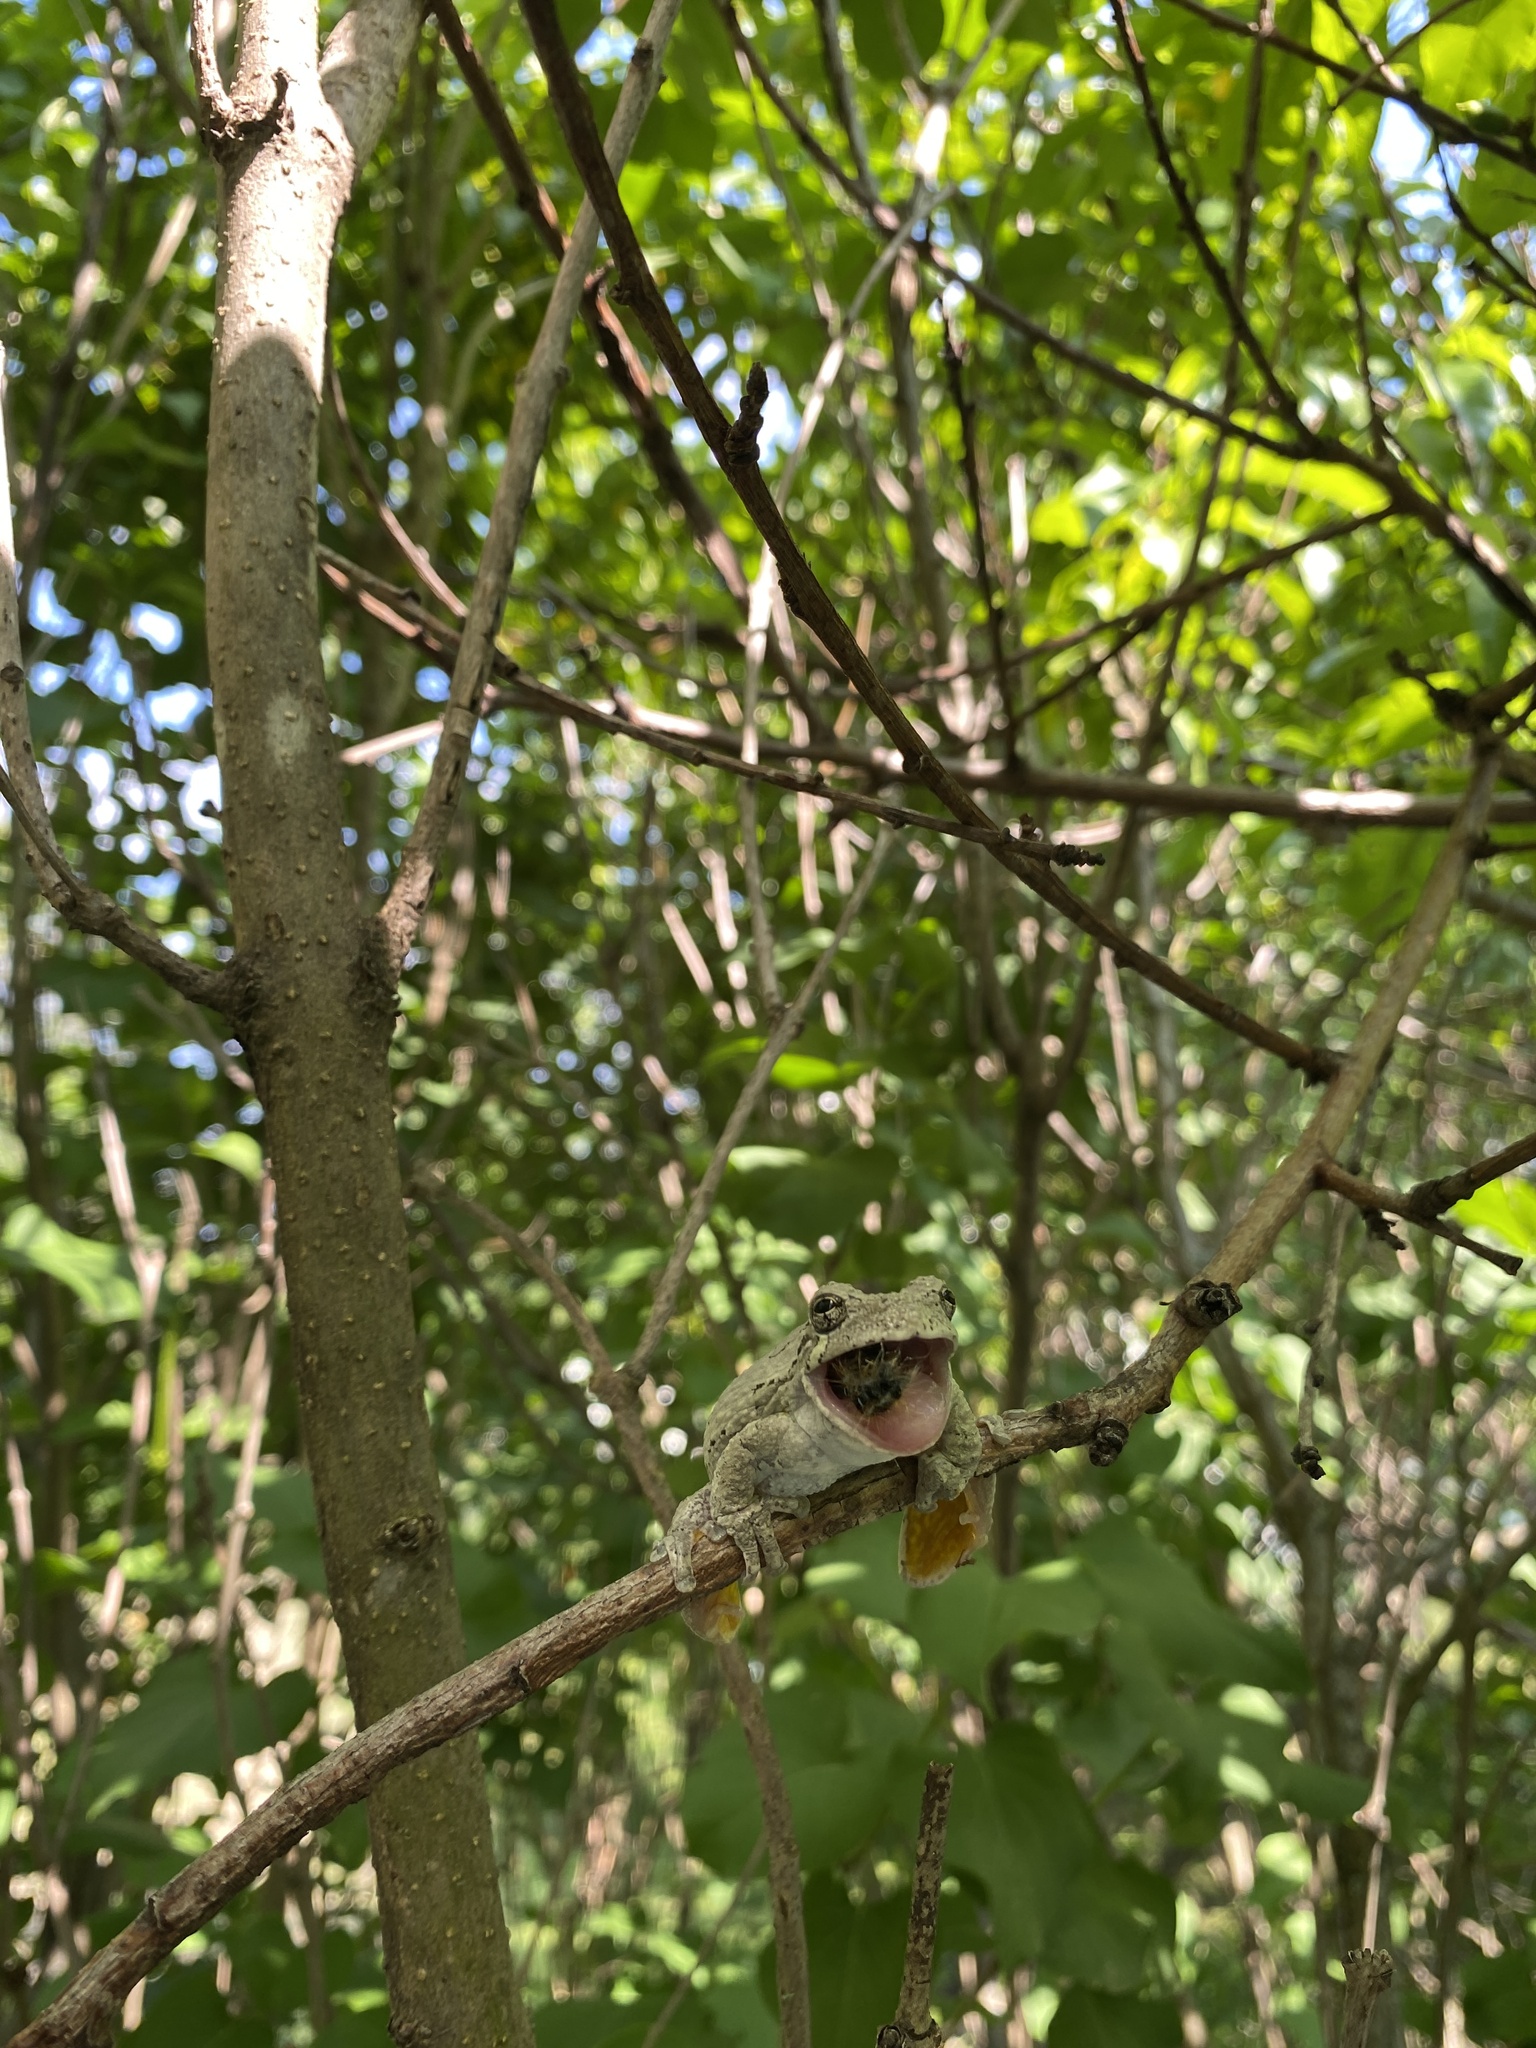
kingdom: Animalia
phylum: Chordata
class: Amphibia
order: Anura
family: Hylidae
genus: Dryophytes
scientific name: Dryophytes versicolor
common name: Gray treefrog
